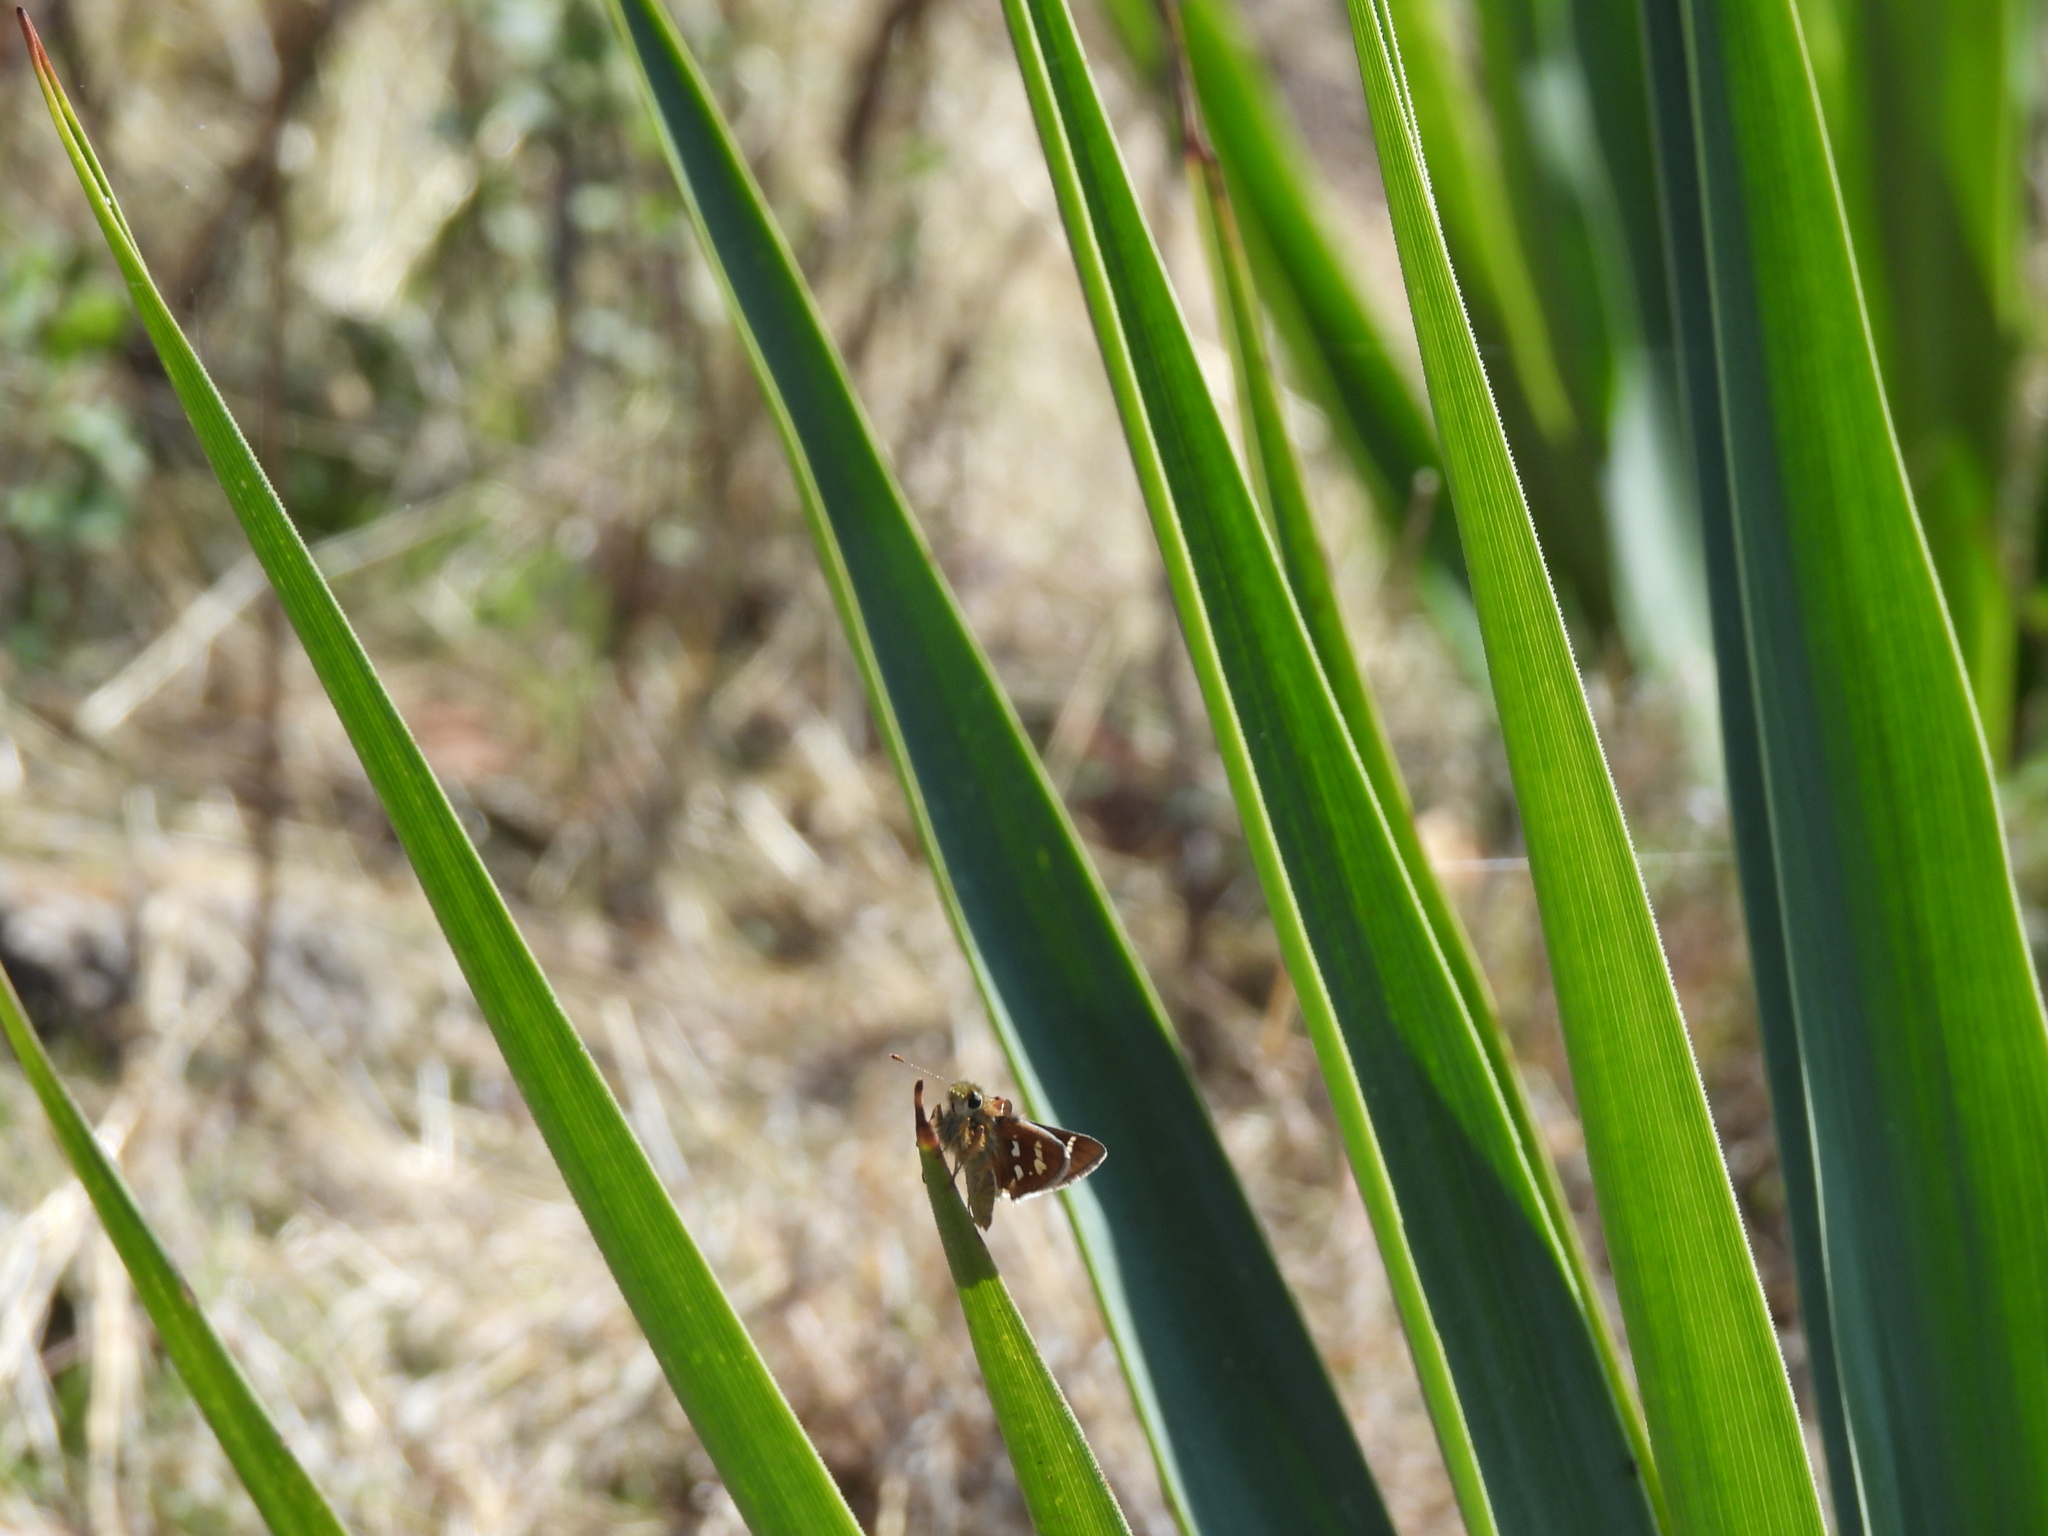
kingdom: Animalia
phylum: Arthropoda
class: Insecta
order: Lepidoptera
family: Hesperiidae
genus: Paratrytone
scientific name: Paratrytone rhexenor
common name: Crazy-spotted skipper
